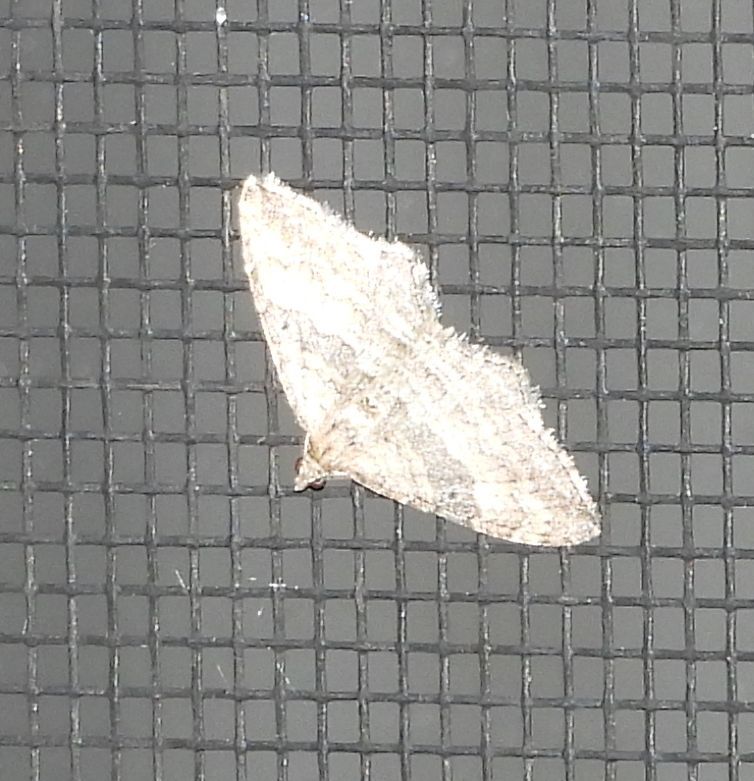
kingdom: Animalia
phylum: Arthropoda
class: Insecta
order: Lepidoptera
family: Geometridae
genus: Orthonama
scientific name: Orthonama obstipata
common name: The gem
